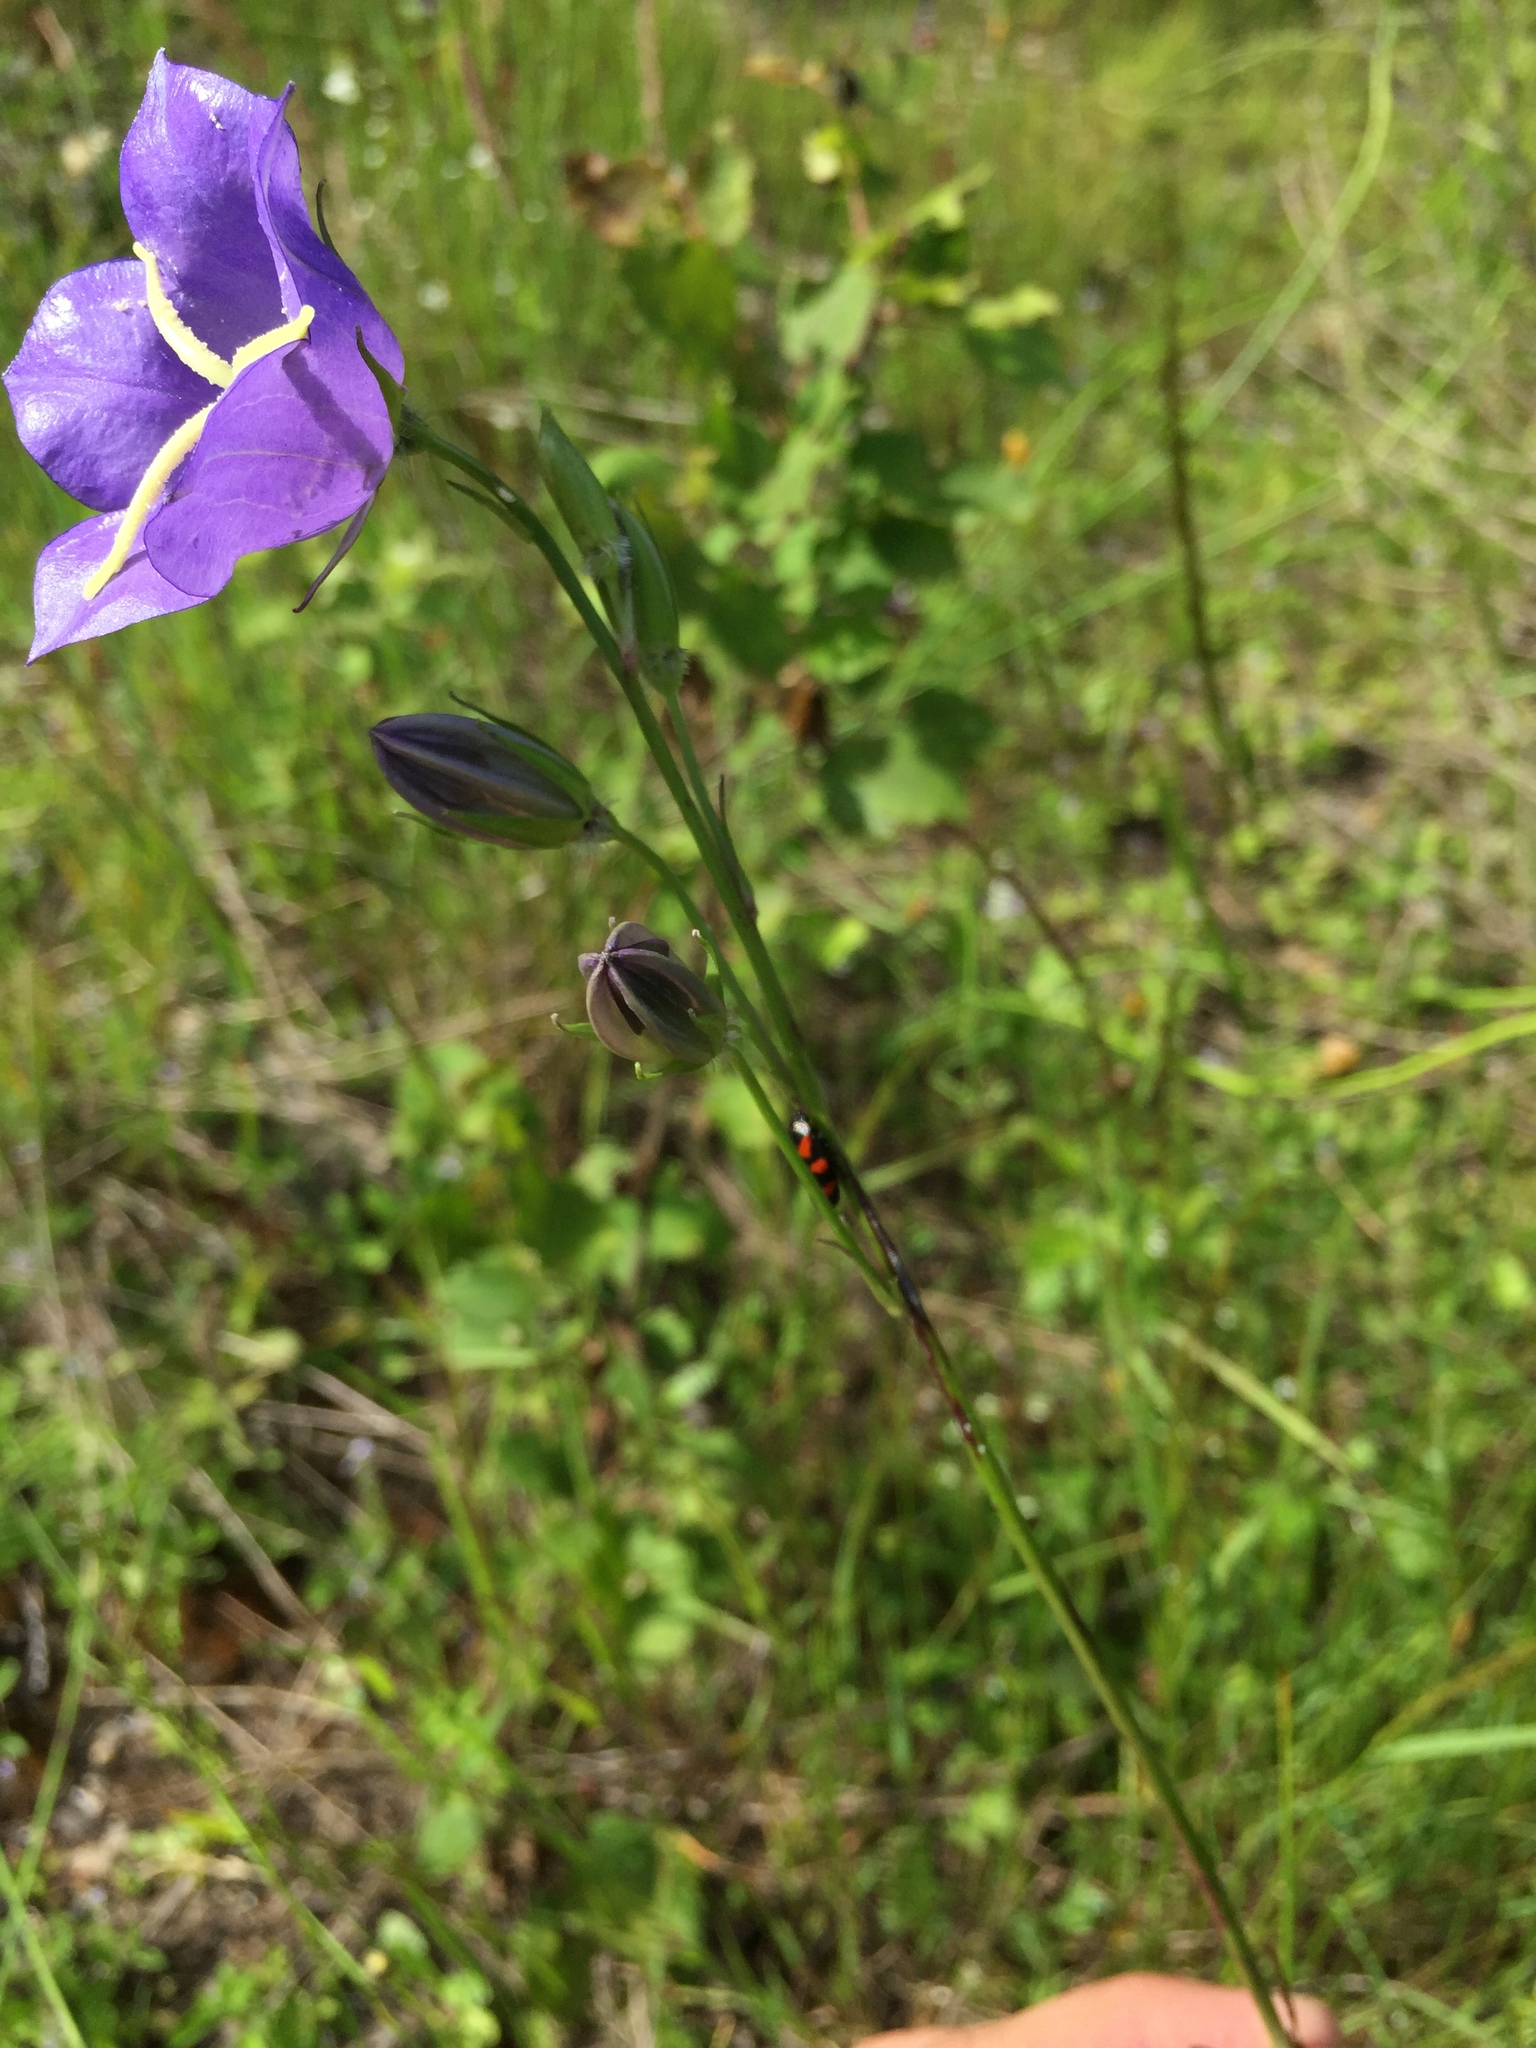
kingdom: Plantae
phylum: Tracheophyta
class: Magnoliopsida
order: Asterales
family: Campanulaceae
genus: Campanula
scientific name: Campanula persicifolia
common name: Peach-leaved bellflower
